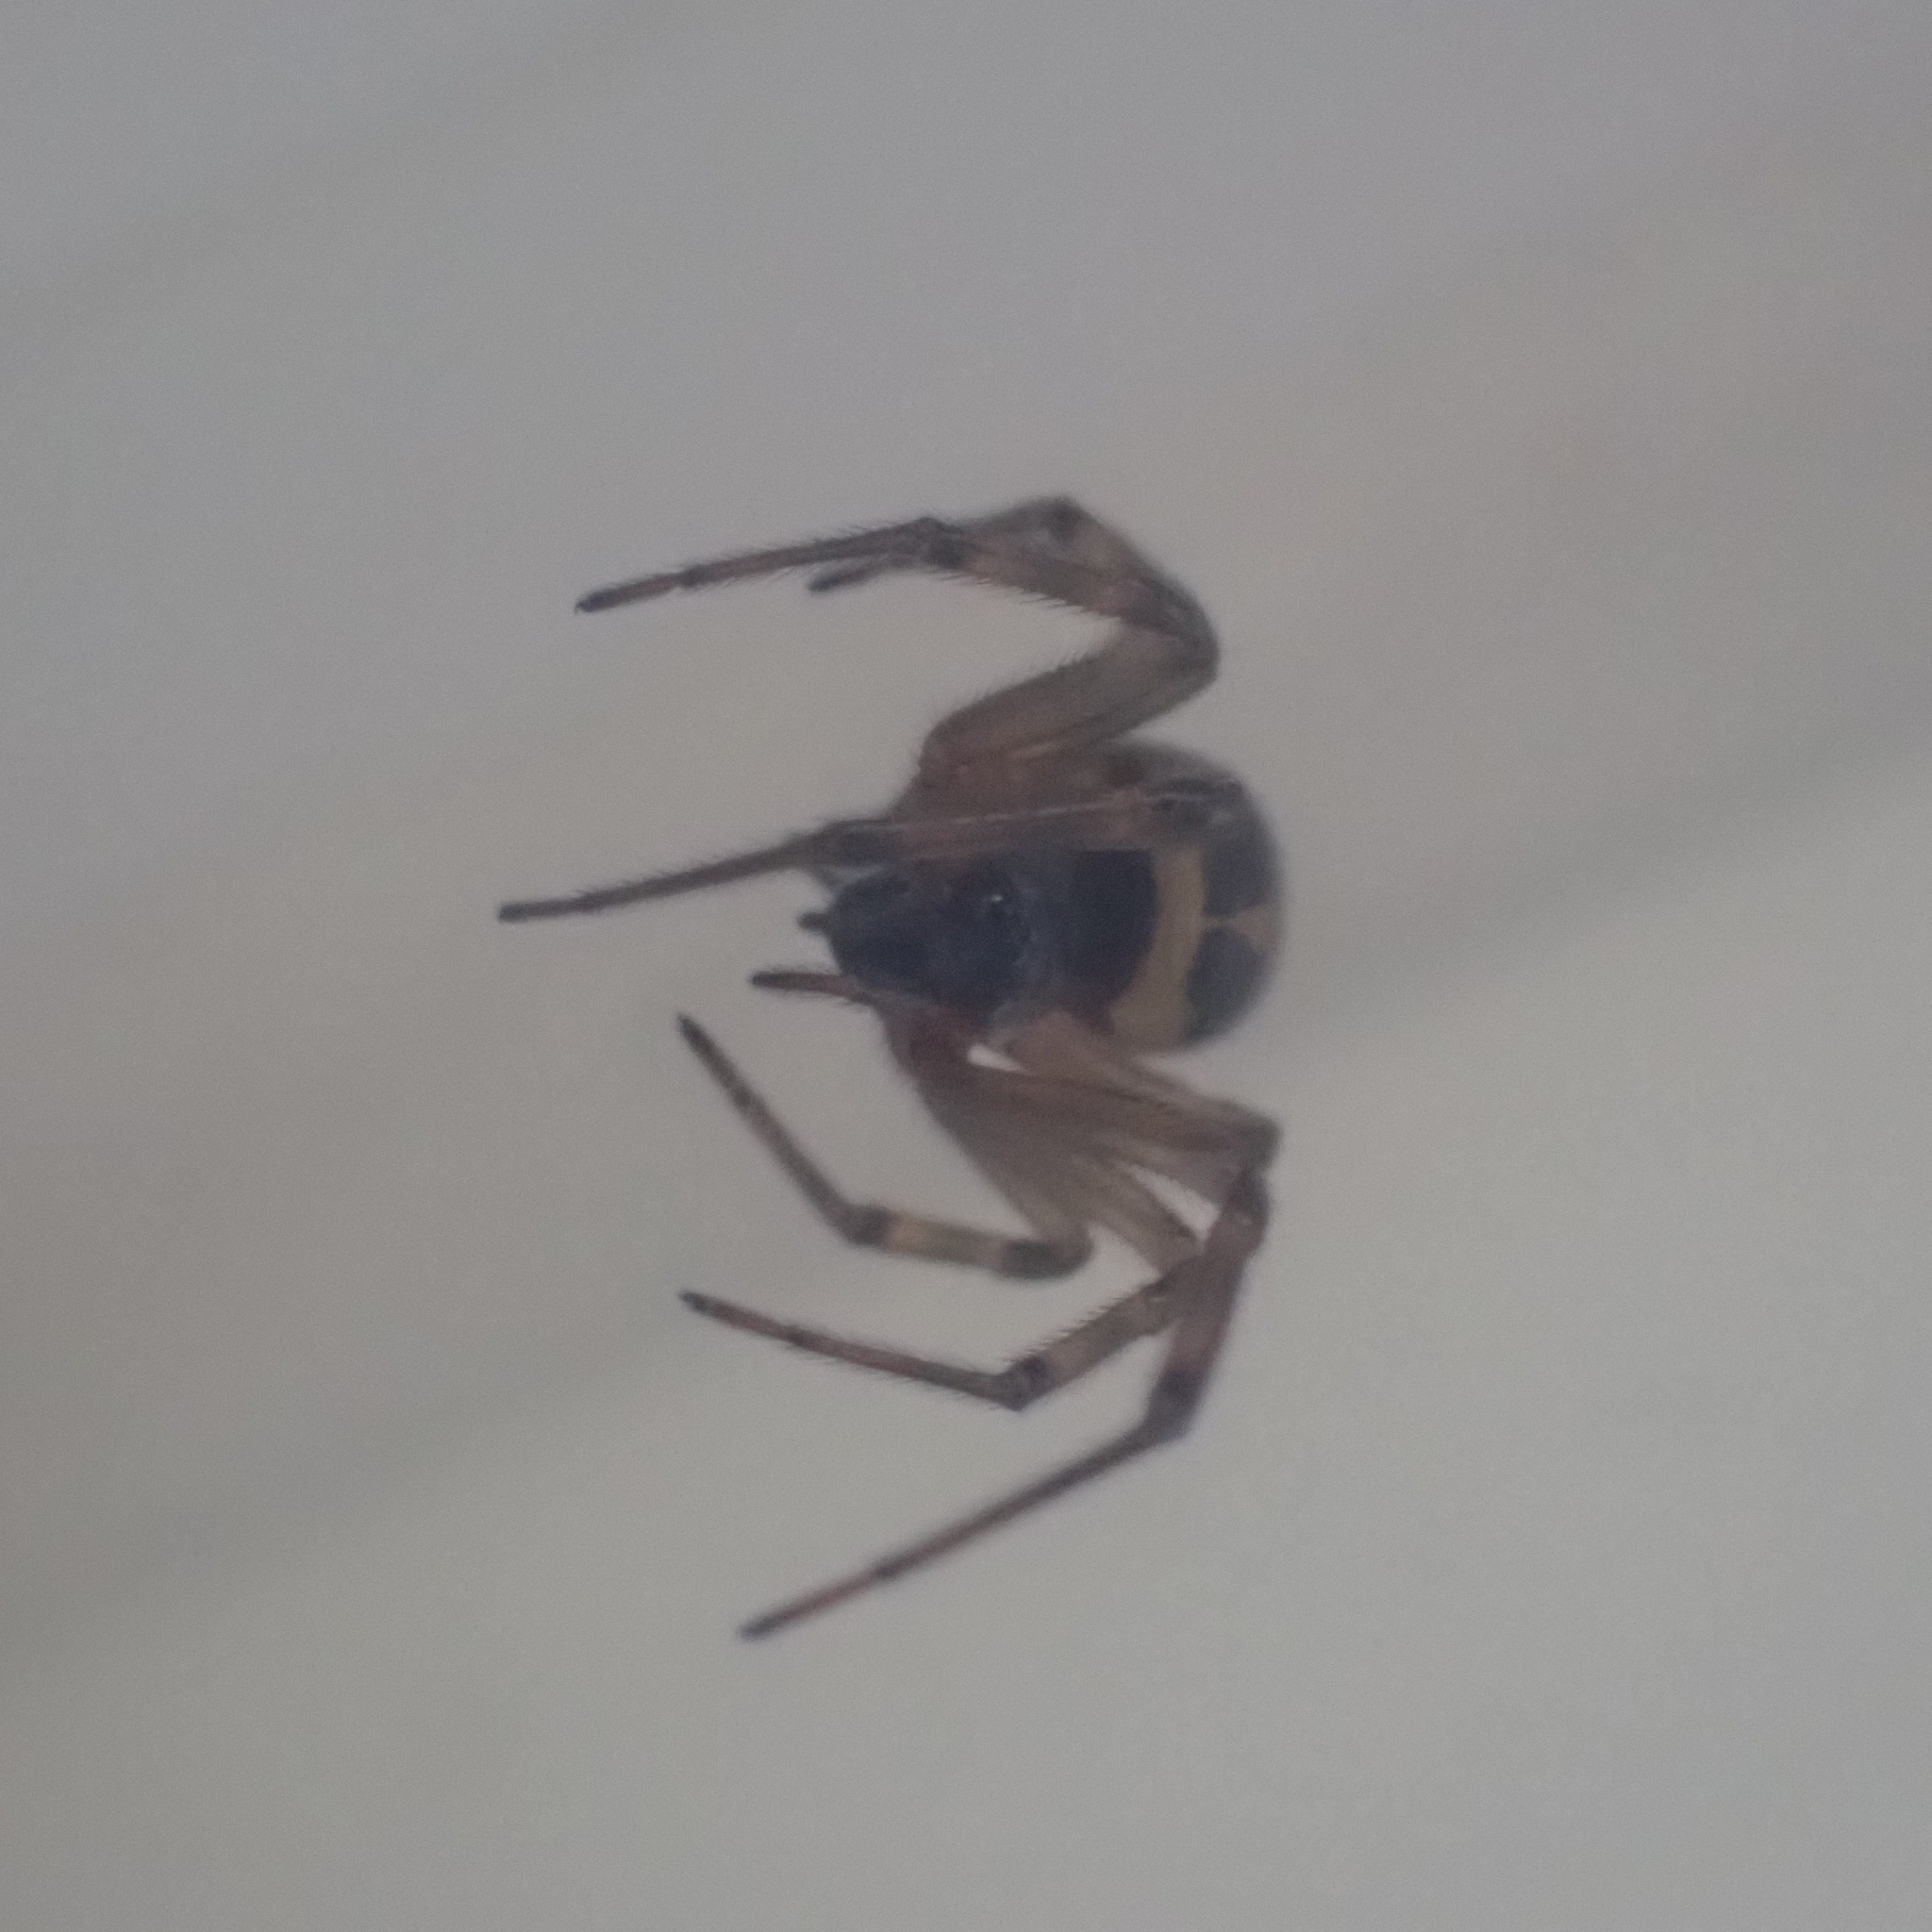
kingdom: Animalia
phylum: Arthropoda
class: Arachnida
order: Araneae
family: Theridiidae
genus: Steatoda
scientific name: Steatoda nobilis
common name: Cobweb weaver
